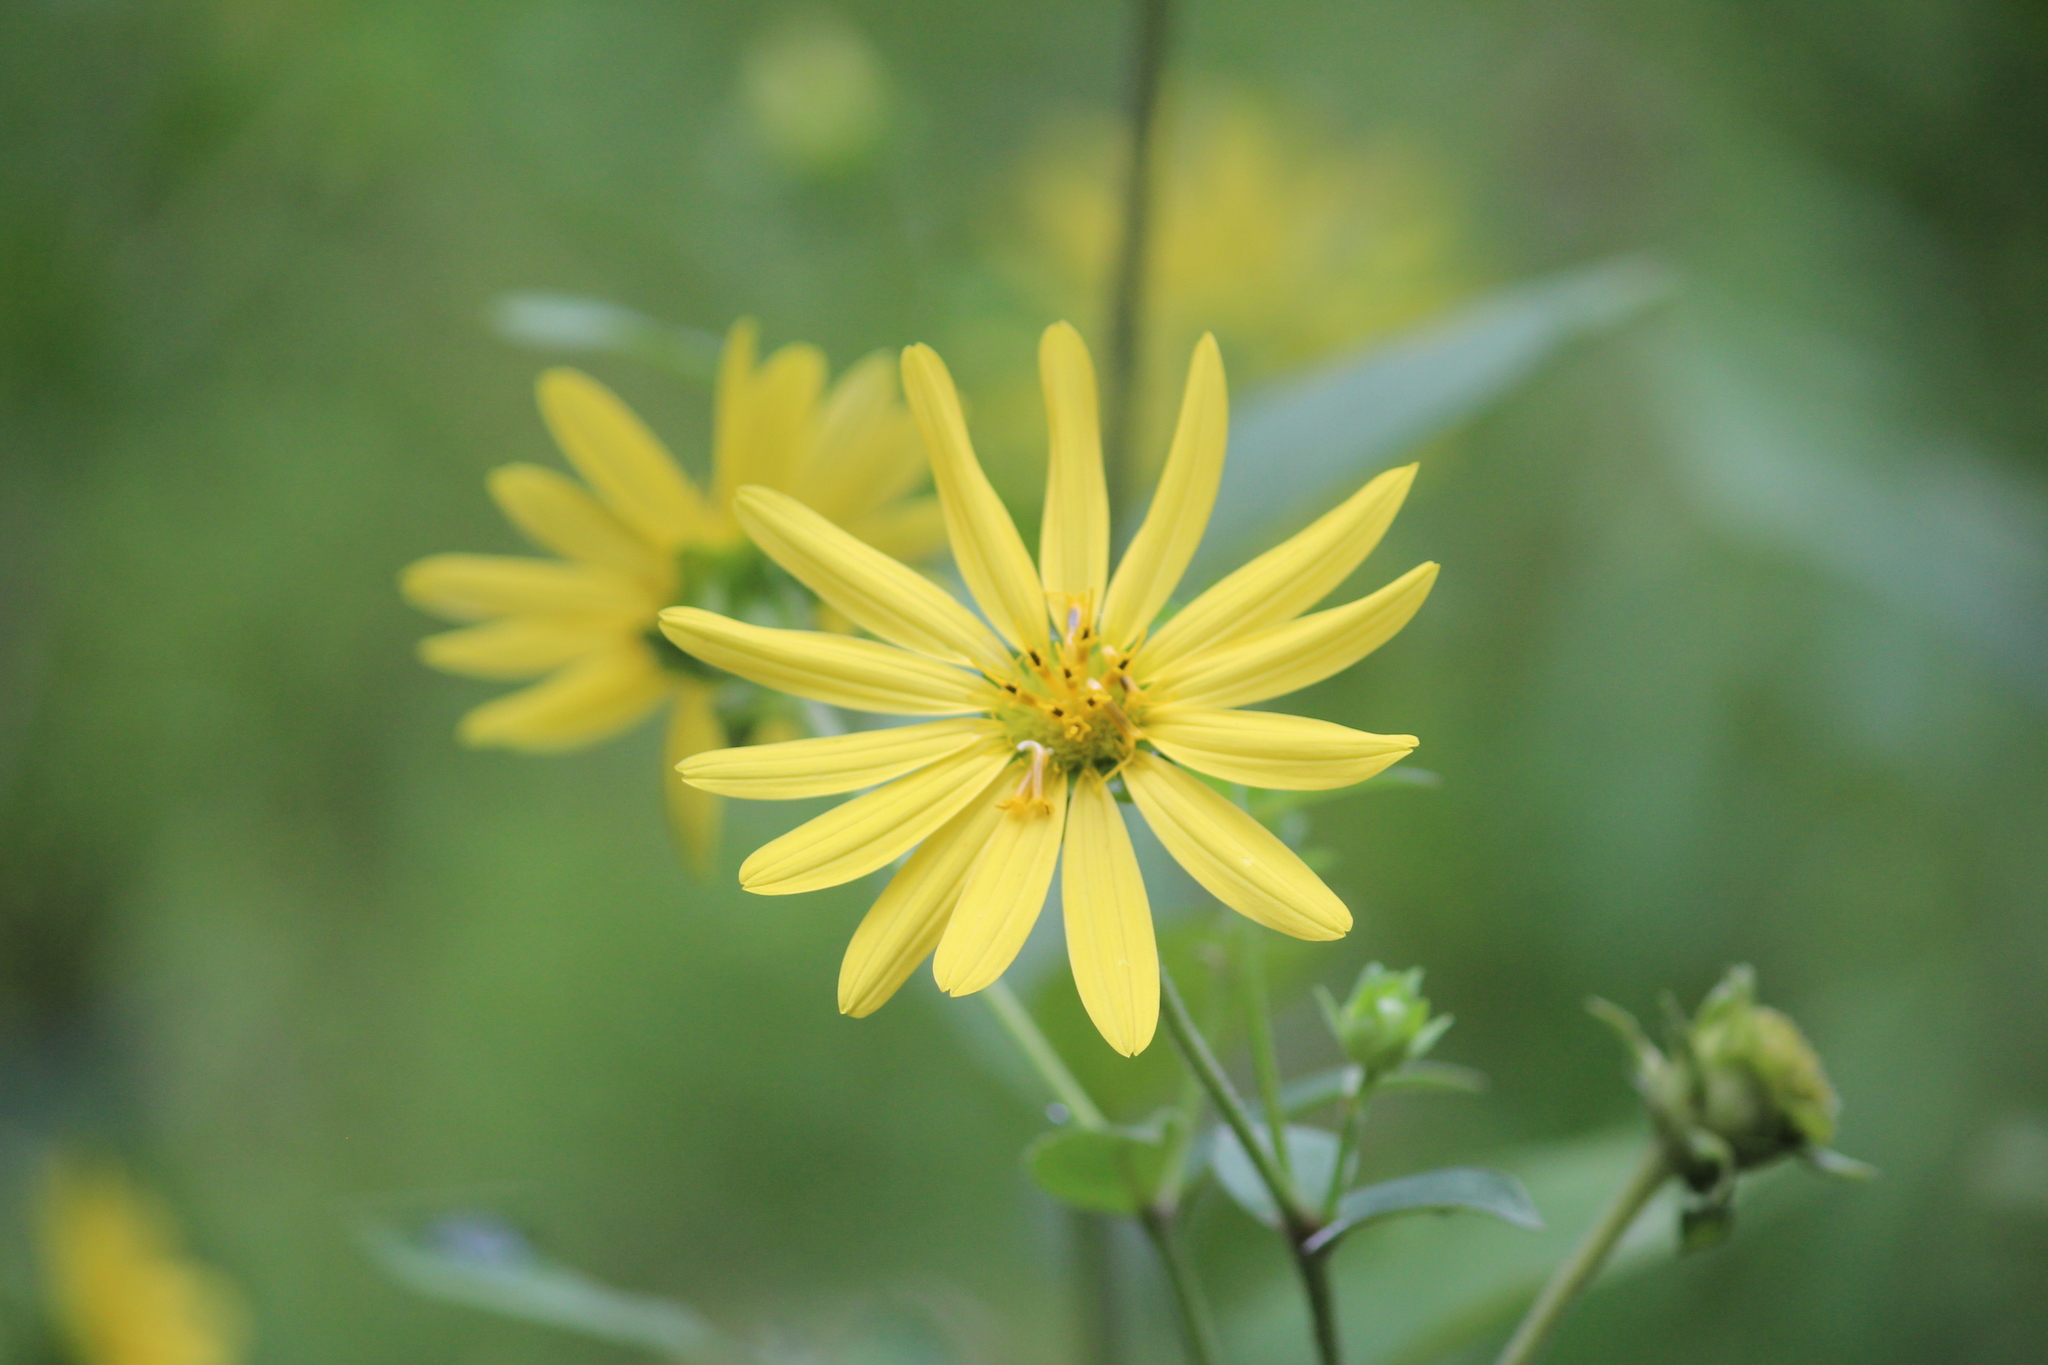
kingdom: Plantae
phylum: Tracheophyta
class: Magnoliopsida
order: Asterales
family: Asteraceae
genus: Silphium
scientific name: Silphium asteriscus
